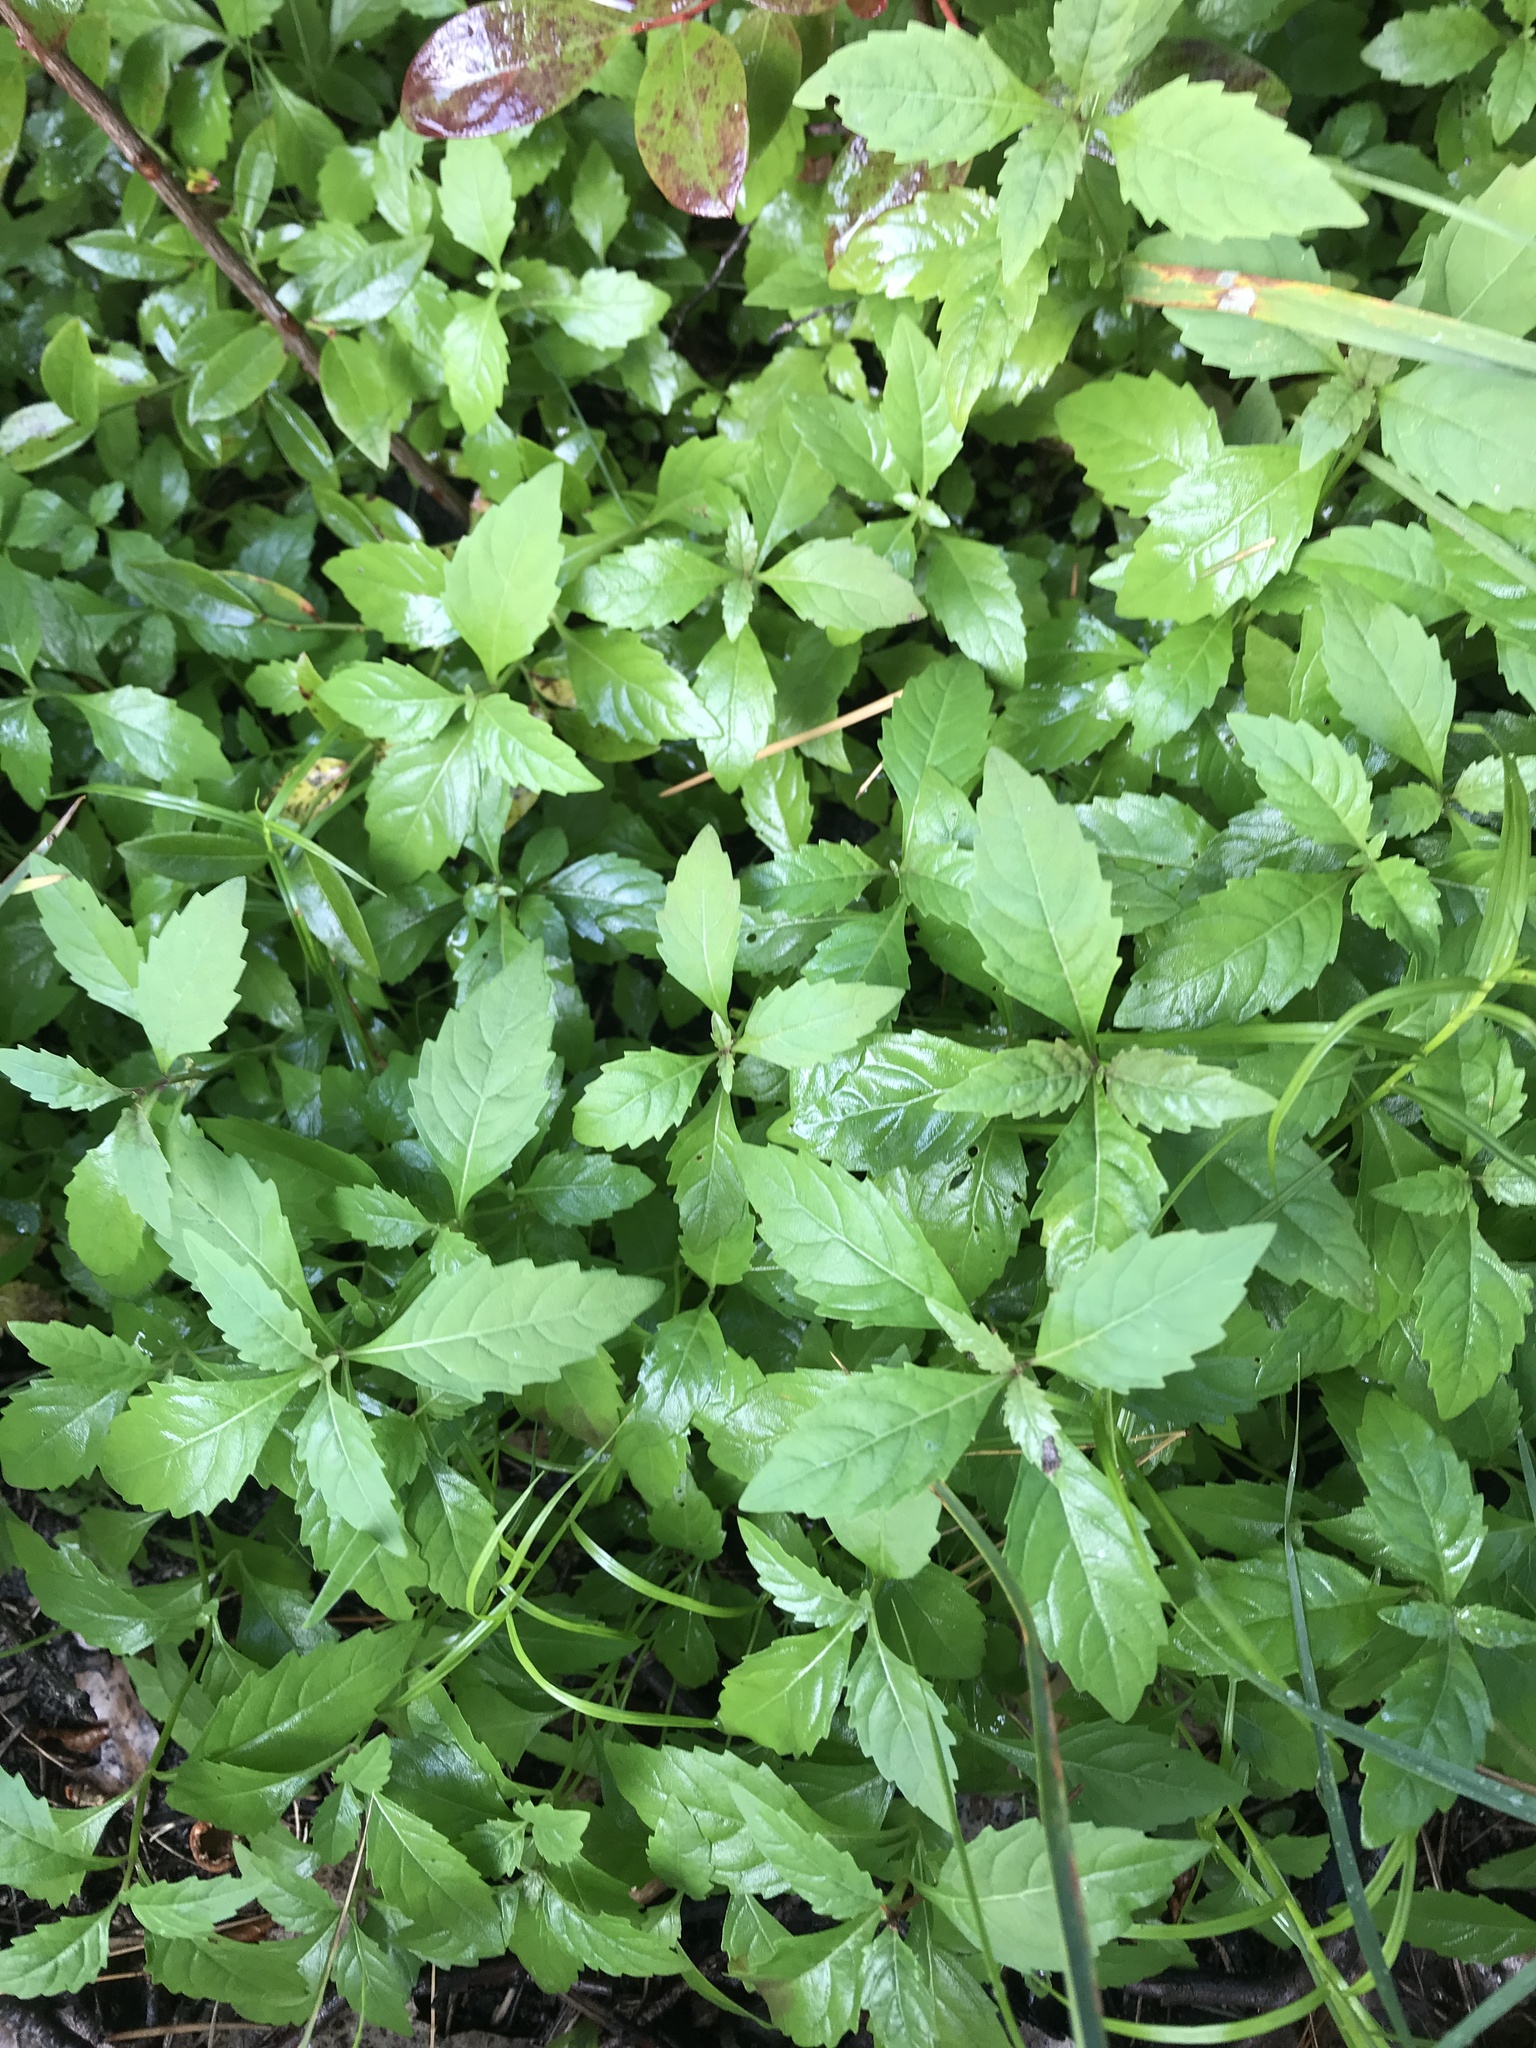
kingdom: Plantae
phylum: Tracheophyta
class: Magnoliopsida
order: Lamiales
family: Lamiaceae
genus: Lycopus
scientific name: Lycopus uniflorus
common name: Northern bugleweed
